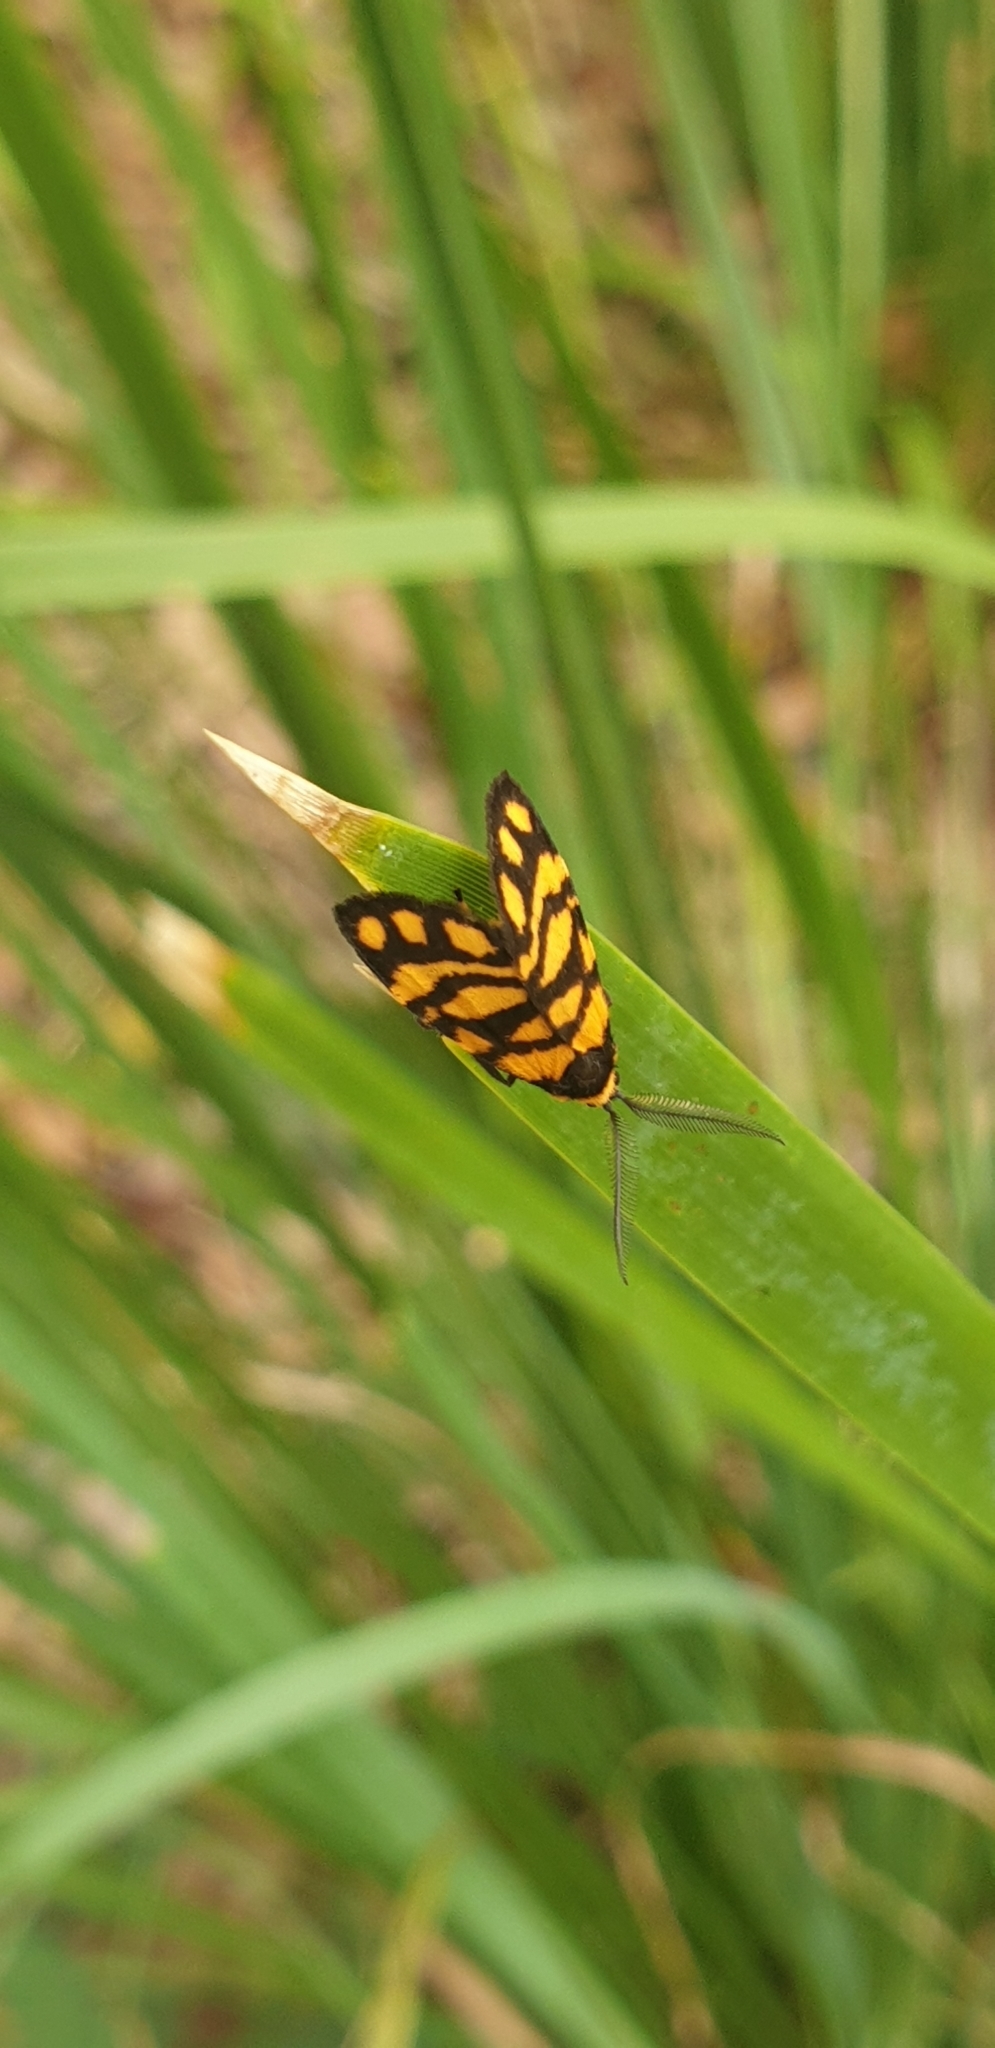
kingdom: Animalia
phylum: Arthropoda
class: Insecta
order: Lepidoptera
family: Erebidae
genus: Asura
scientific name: Asura lydia
